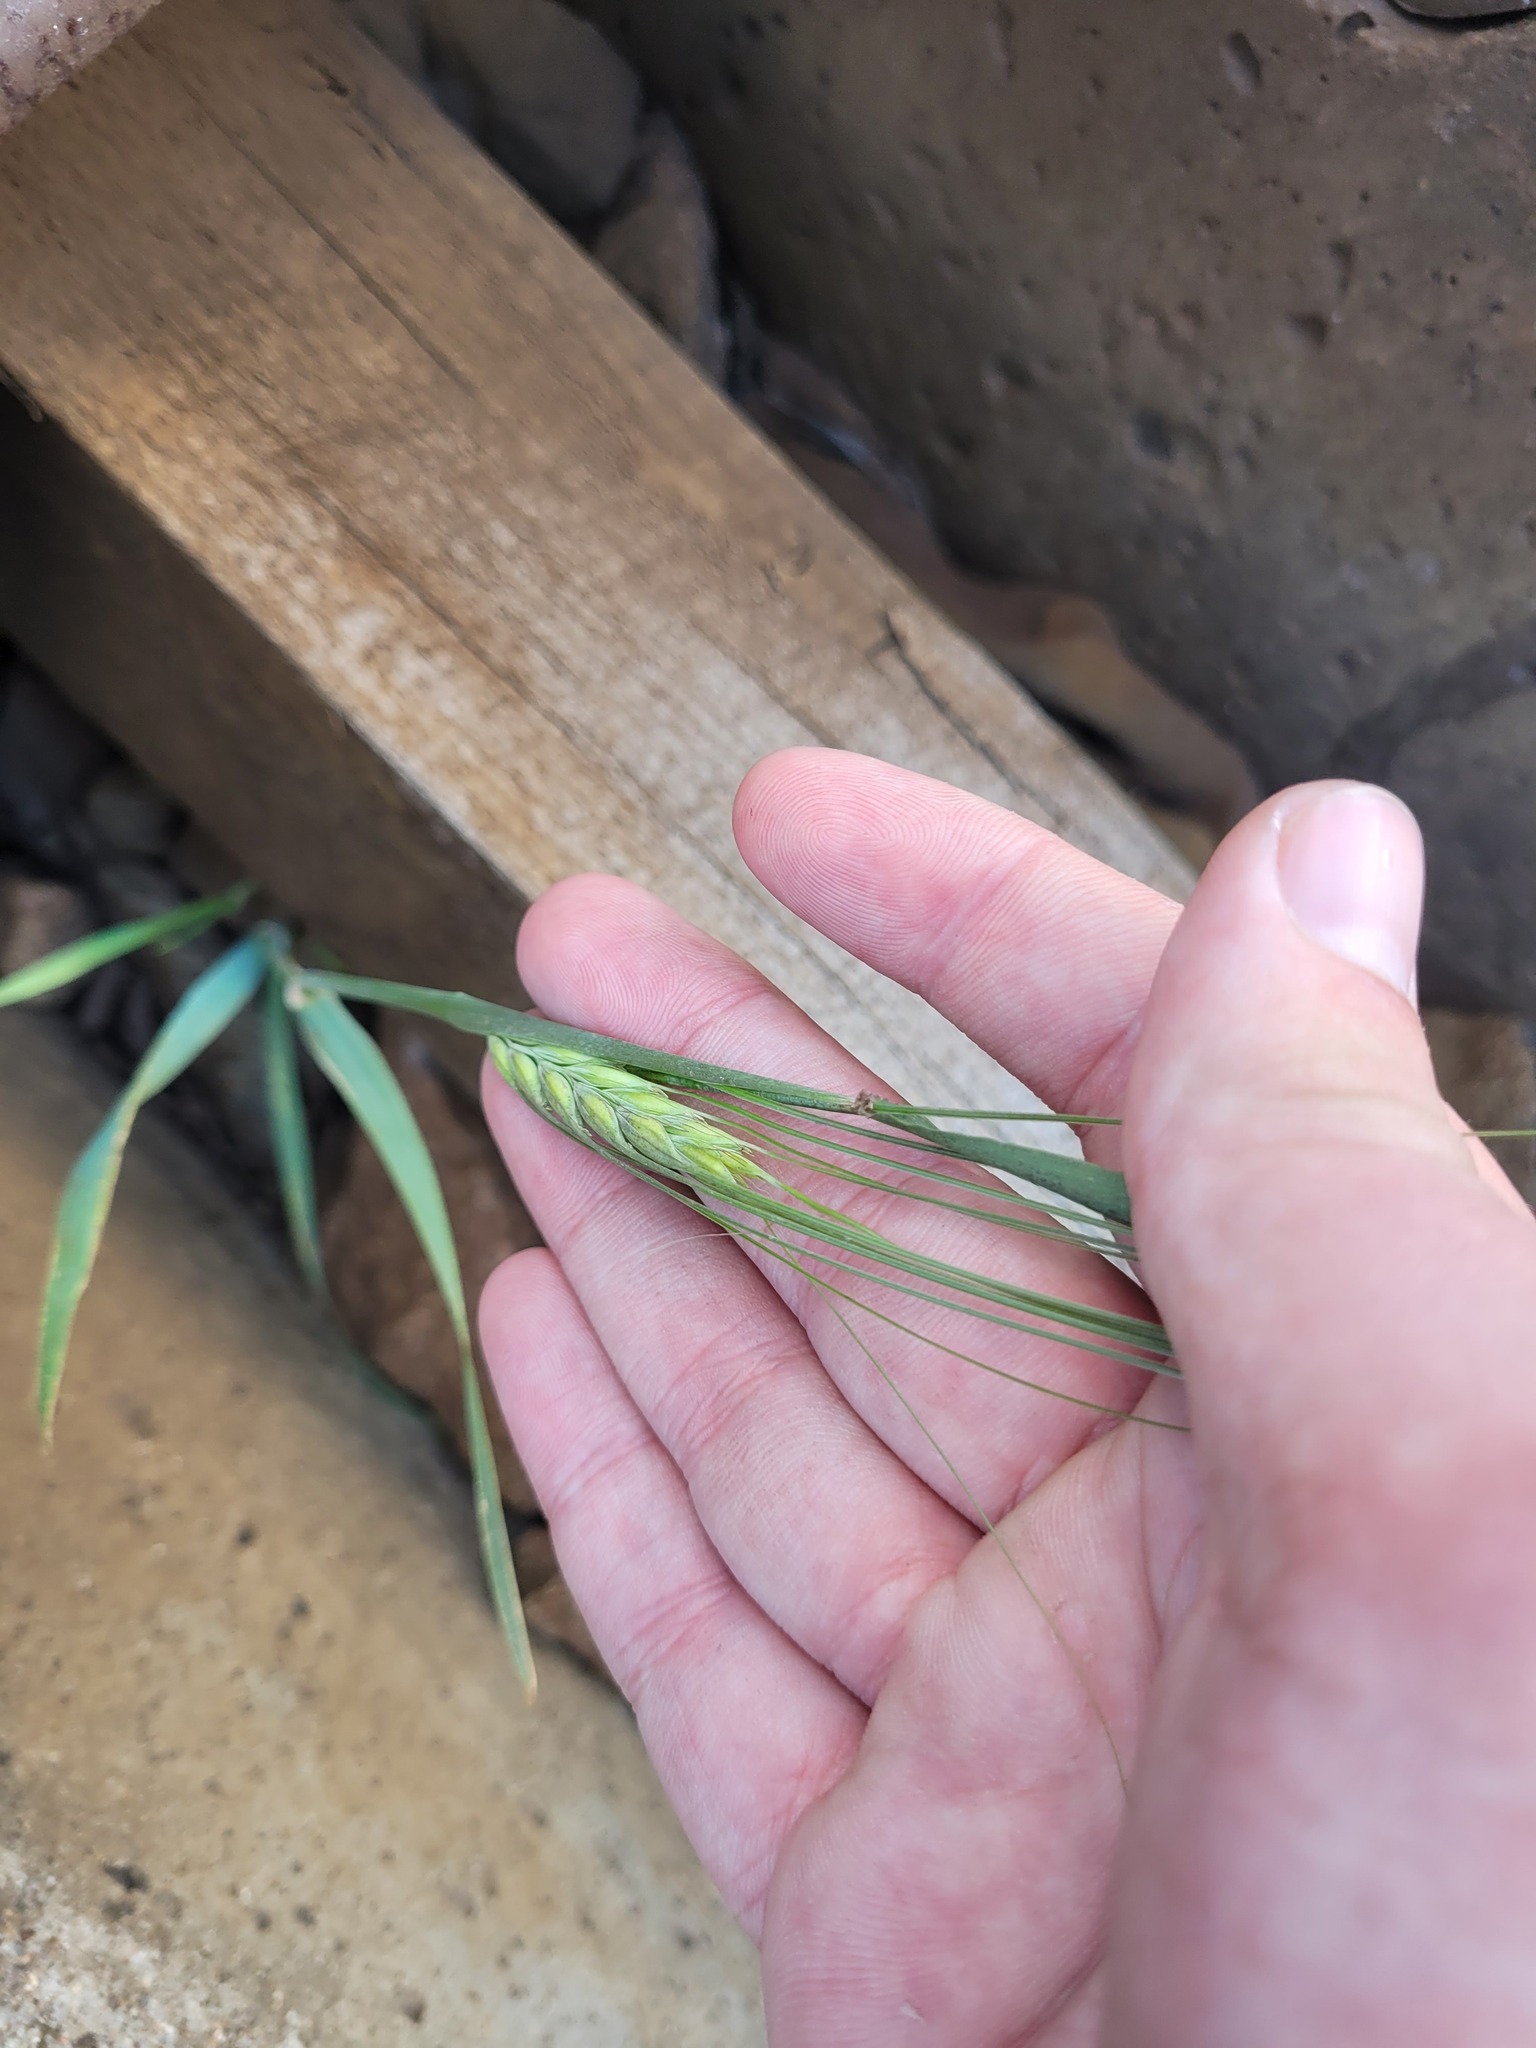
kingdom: Plantae
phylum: Tracheophyta
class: Liliopsida
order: Poales
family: Poaceae
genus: Hordeum
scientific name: Hordeum vulgare
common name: Common barley
